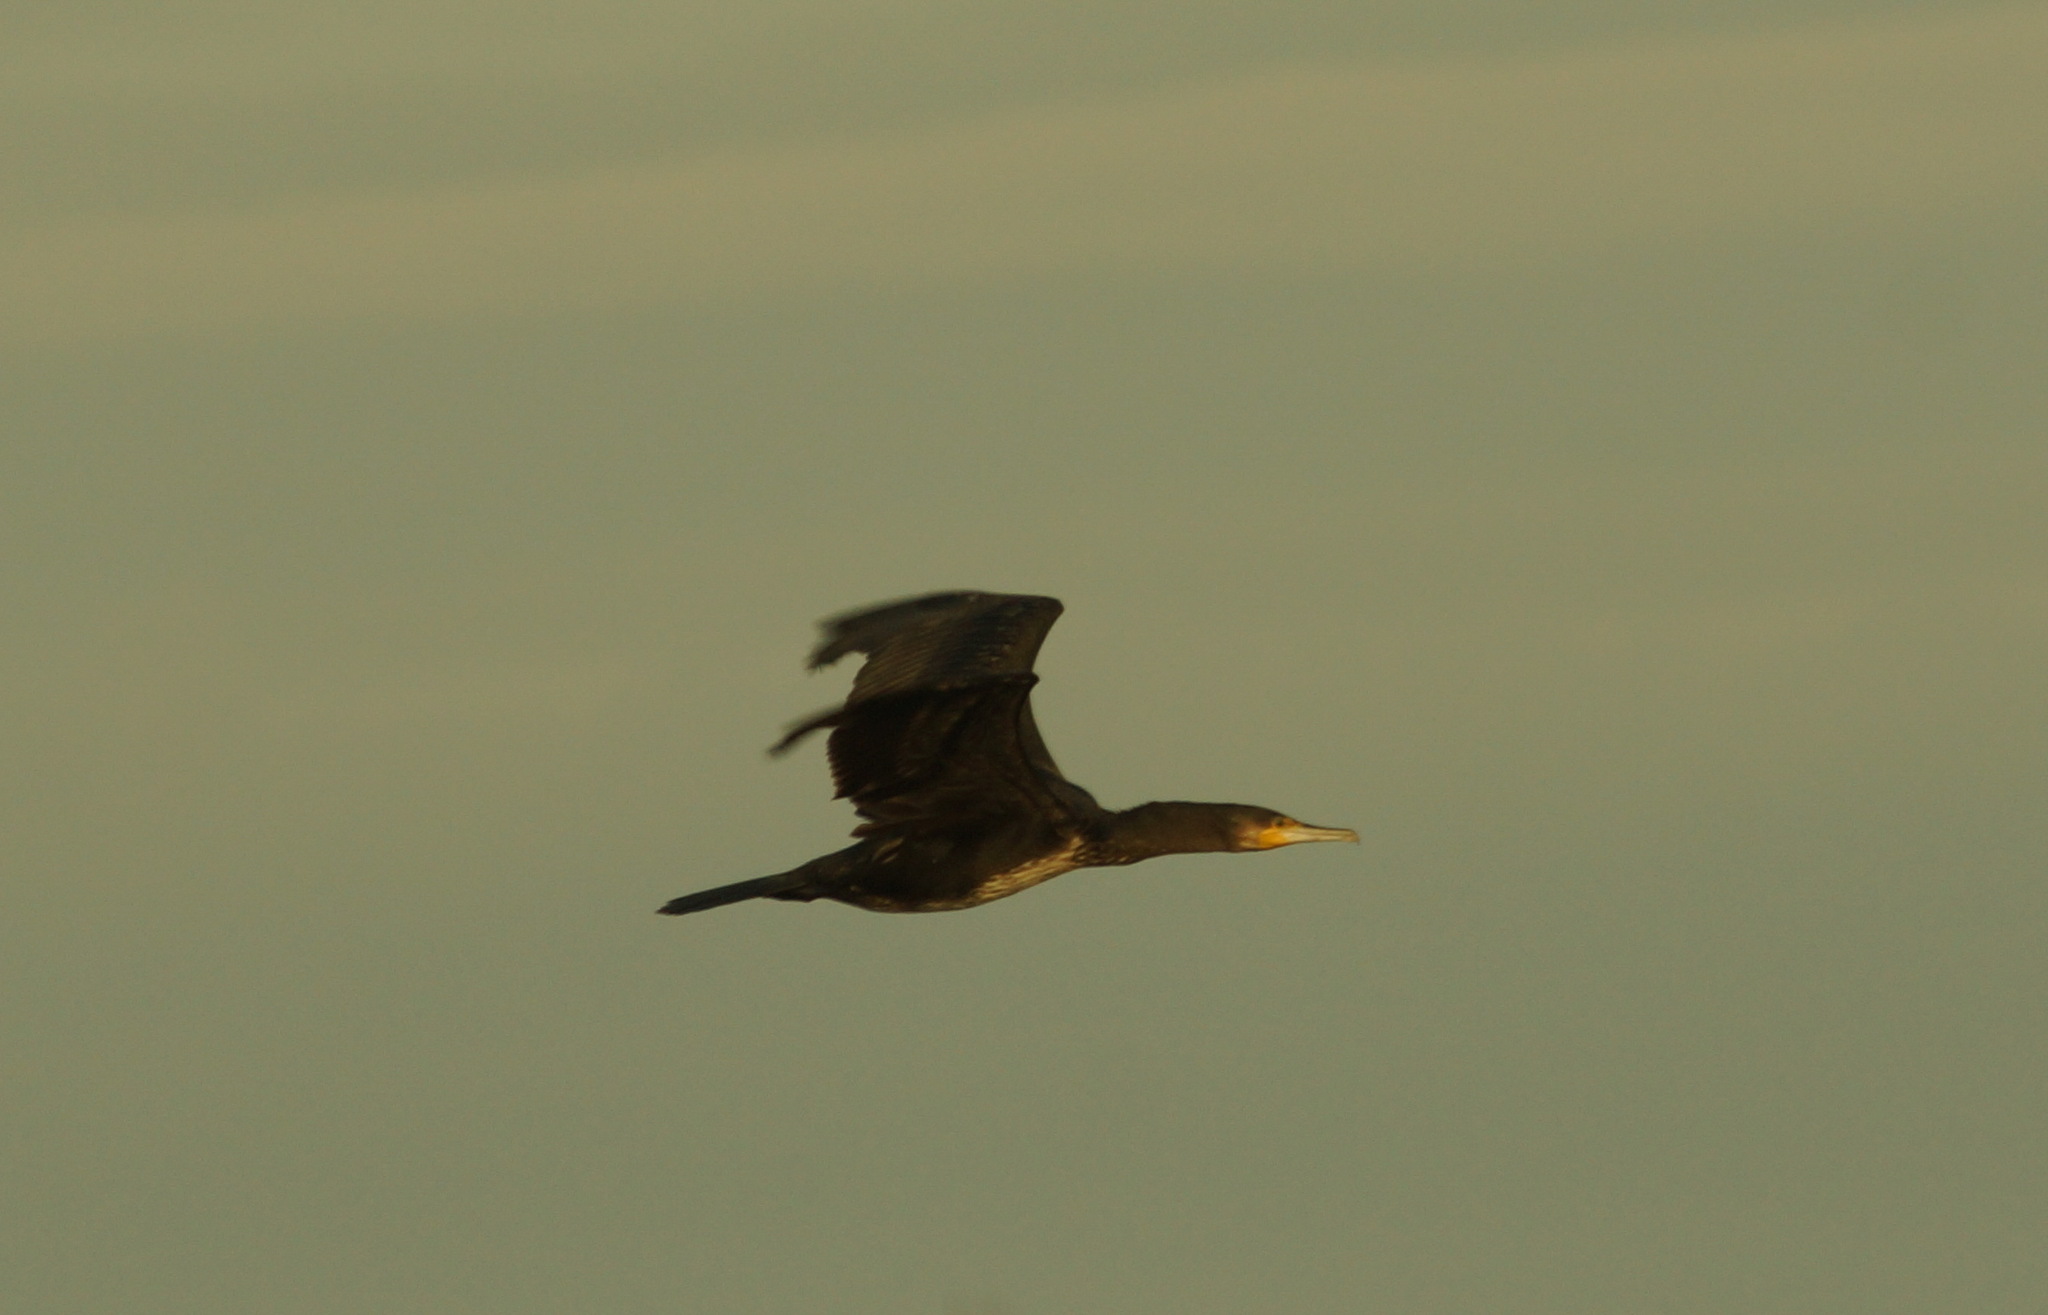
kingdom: Animalia
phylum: Chordata
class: Aves
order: Suliformes
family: Phalacrocoracidae
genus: Phalacrocorax
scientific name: Phalacrocorax carbo
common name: Great cormorant
